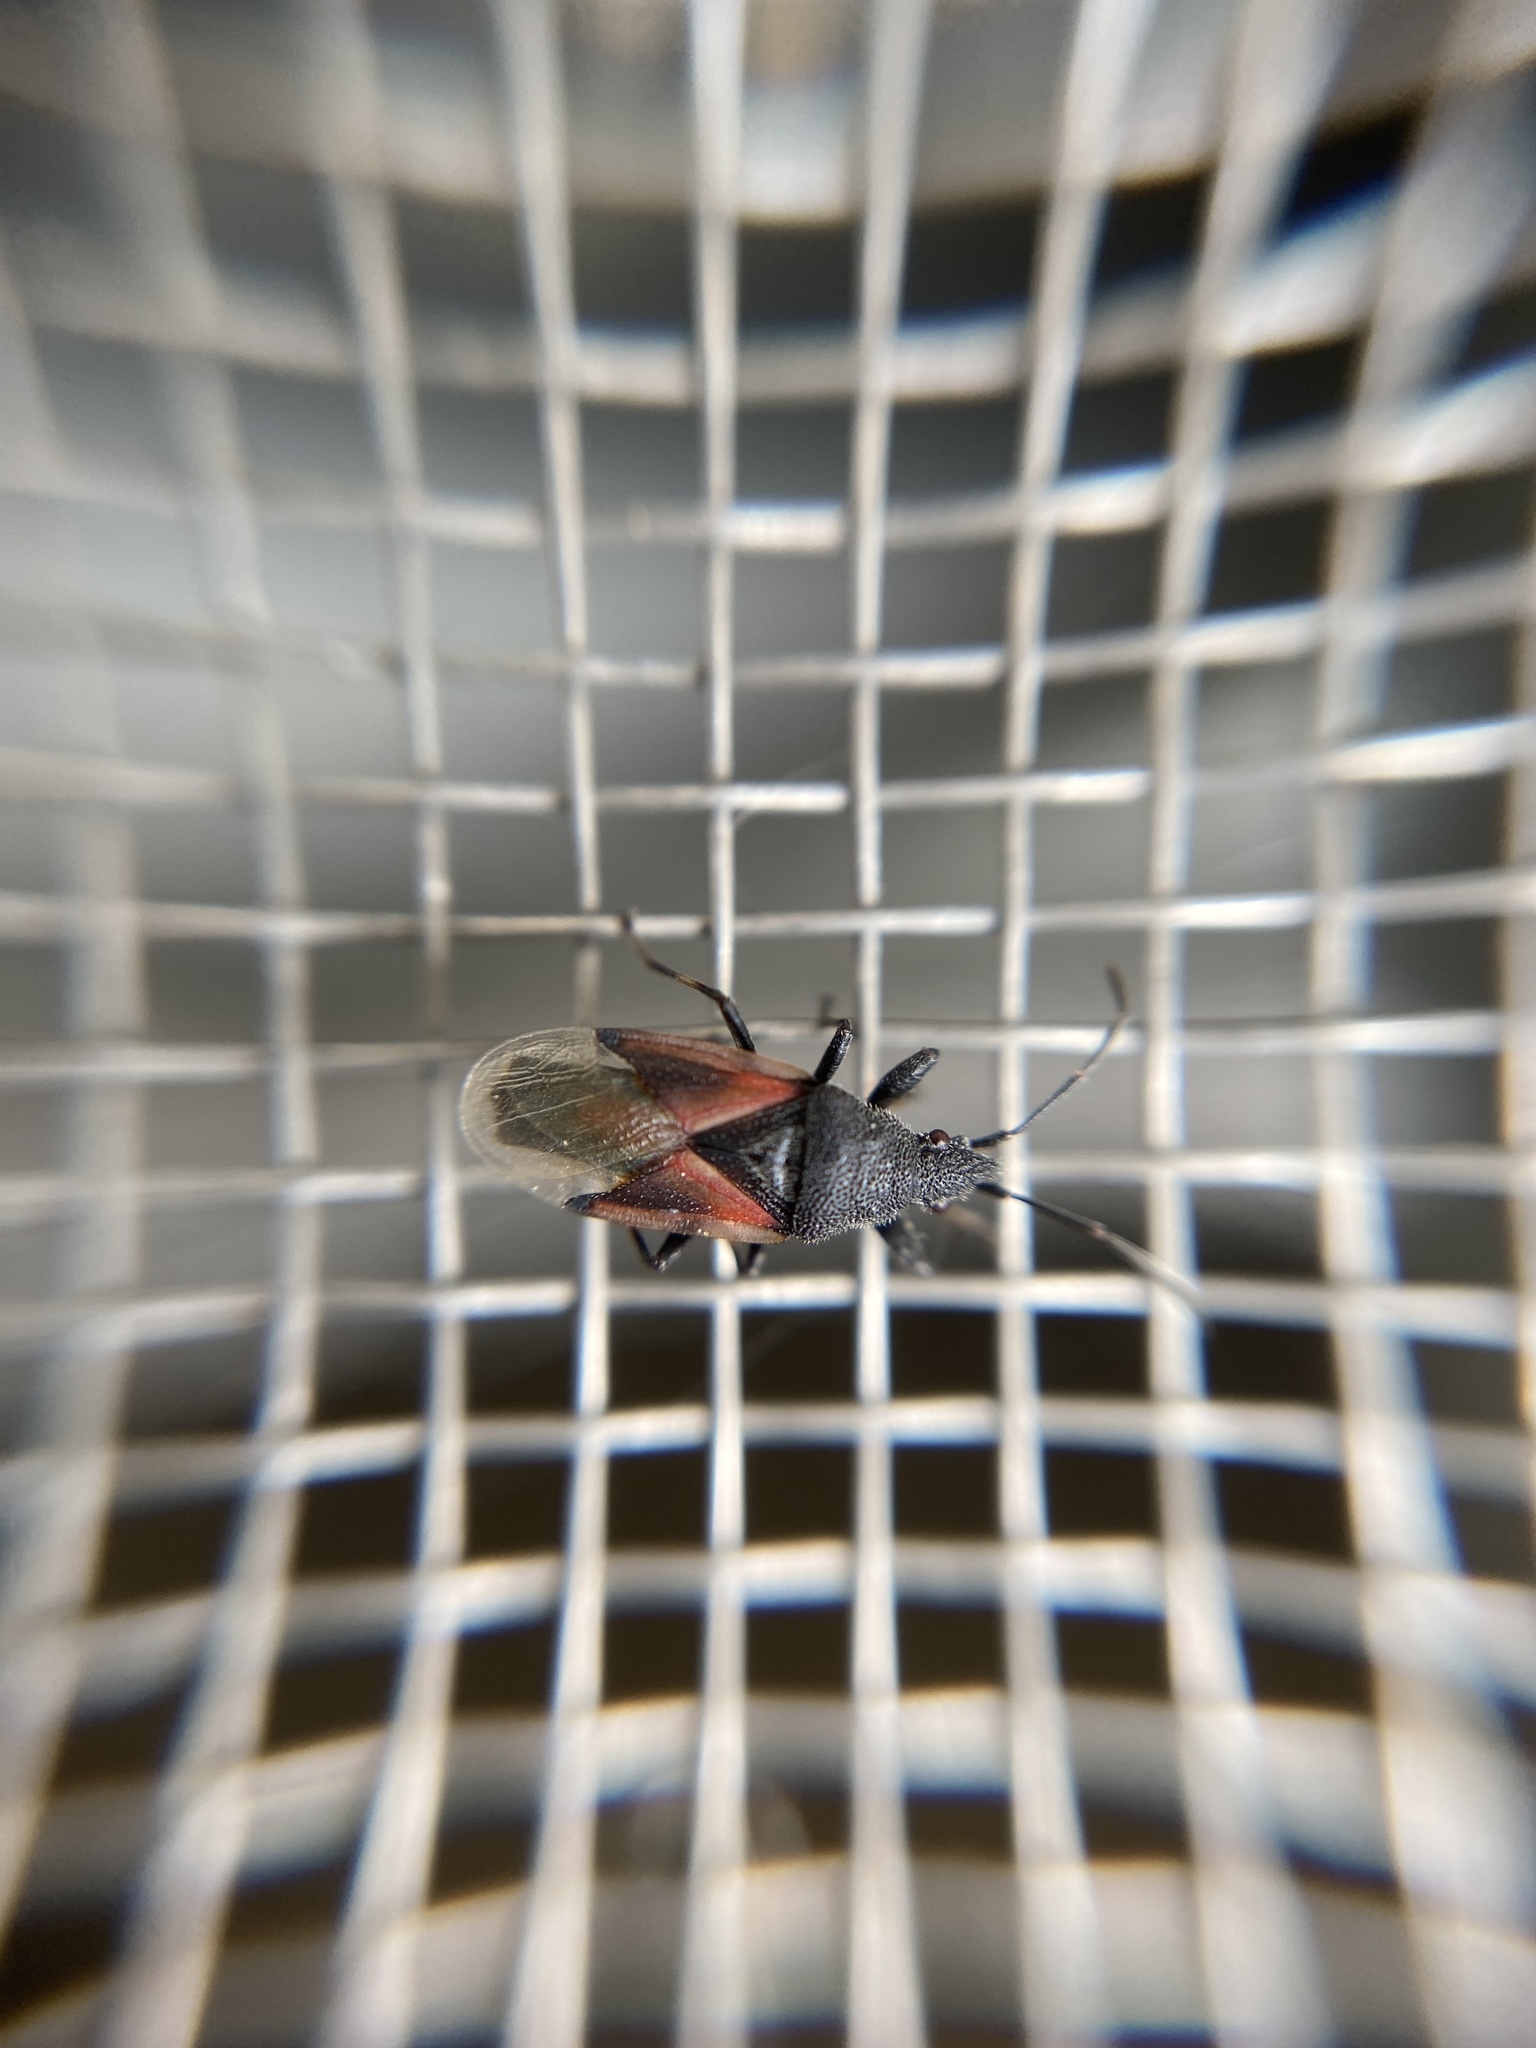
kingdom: Animalia
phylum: Arthropoda
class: Insecta
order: Hemiptera
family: Oxycarenidae
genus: Oxycarenus
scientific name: Oxycarenus lavaterae
